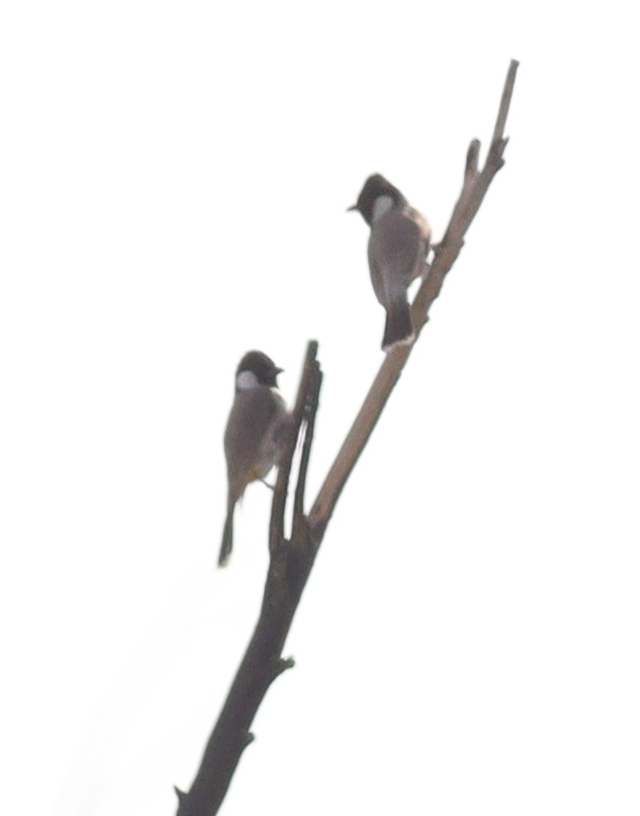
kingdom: Animalia
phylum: Chordata
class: Aves
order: Passeriformes
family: Pycnonotidae
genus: Pycnonotus
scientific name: Pycnonotus leucotis
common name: White-eared bulbul
